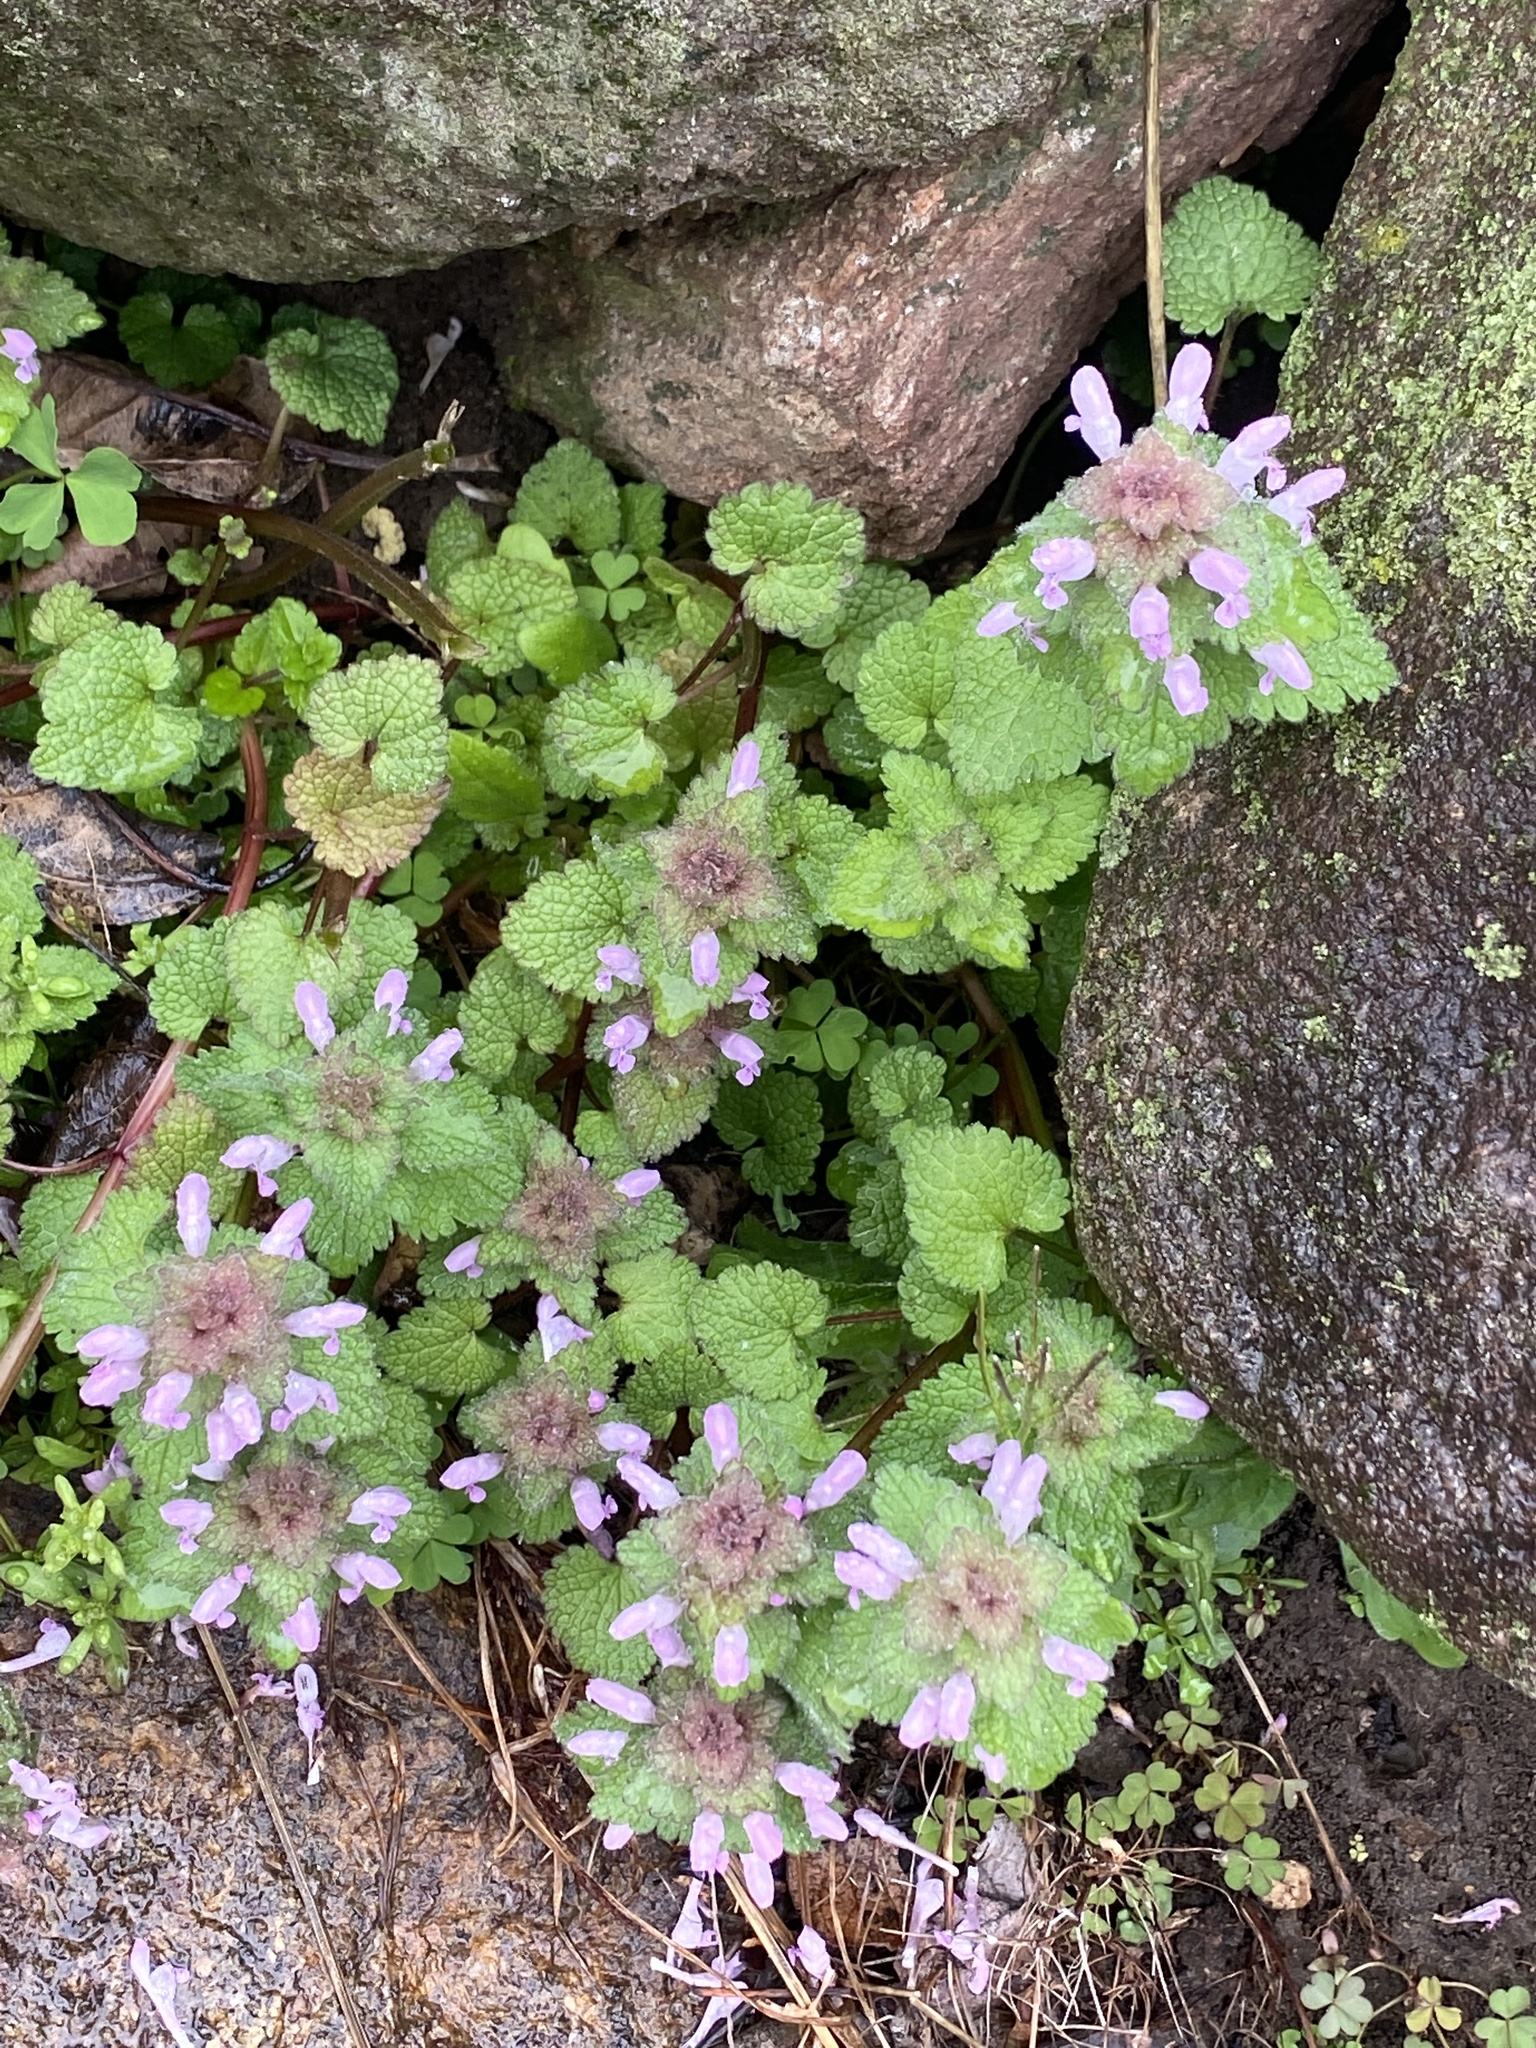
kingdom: Plantae
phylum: Tracheophyta
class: Magnoliopsida
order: Lamiales
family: Lamiaceae
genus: Lamium
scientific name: Lamium purpureum
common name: Red dead-nettle
